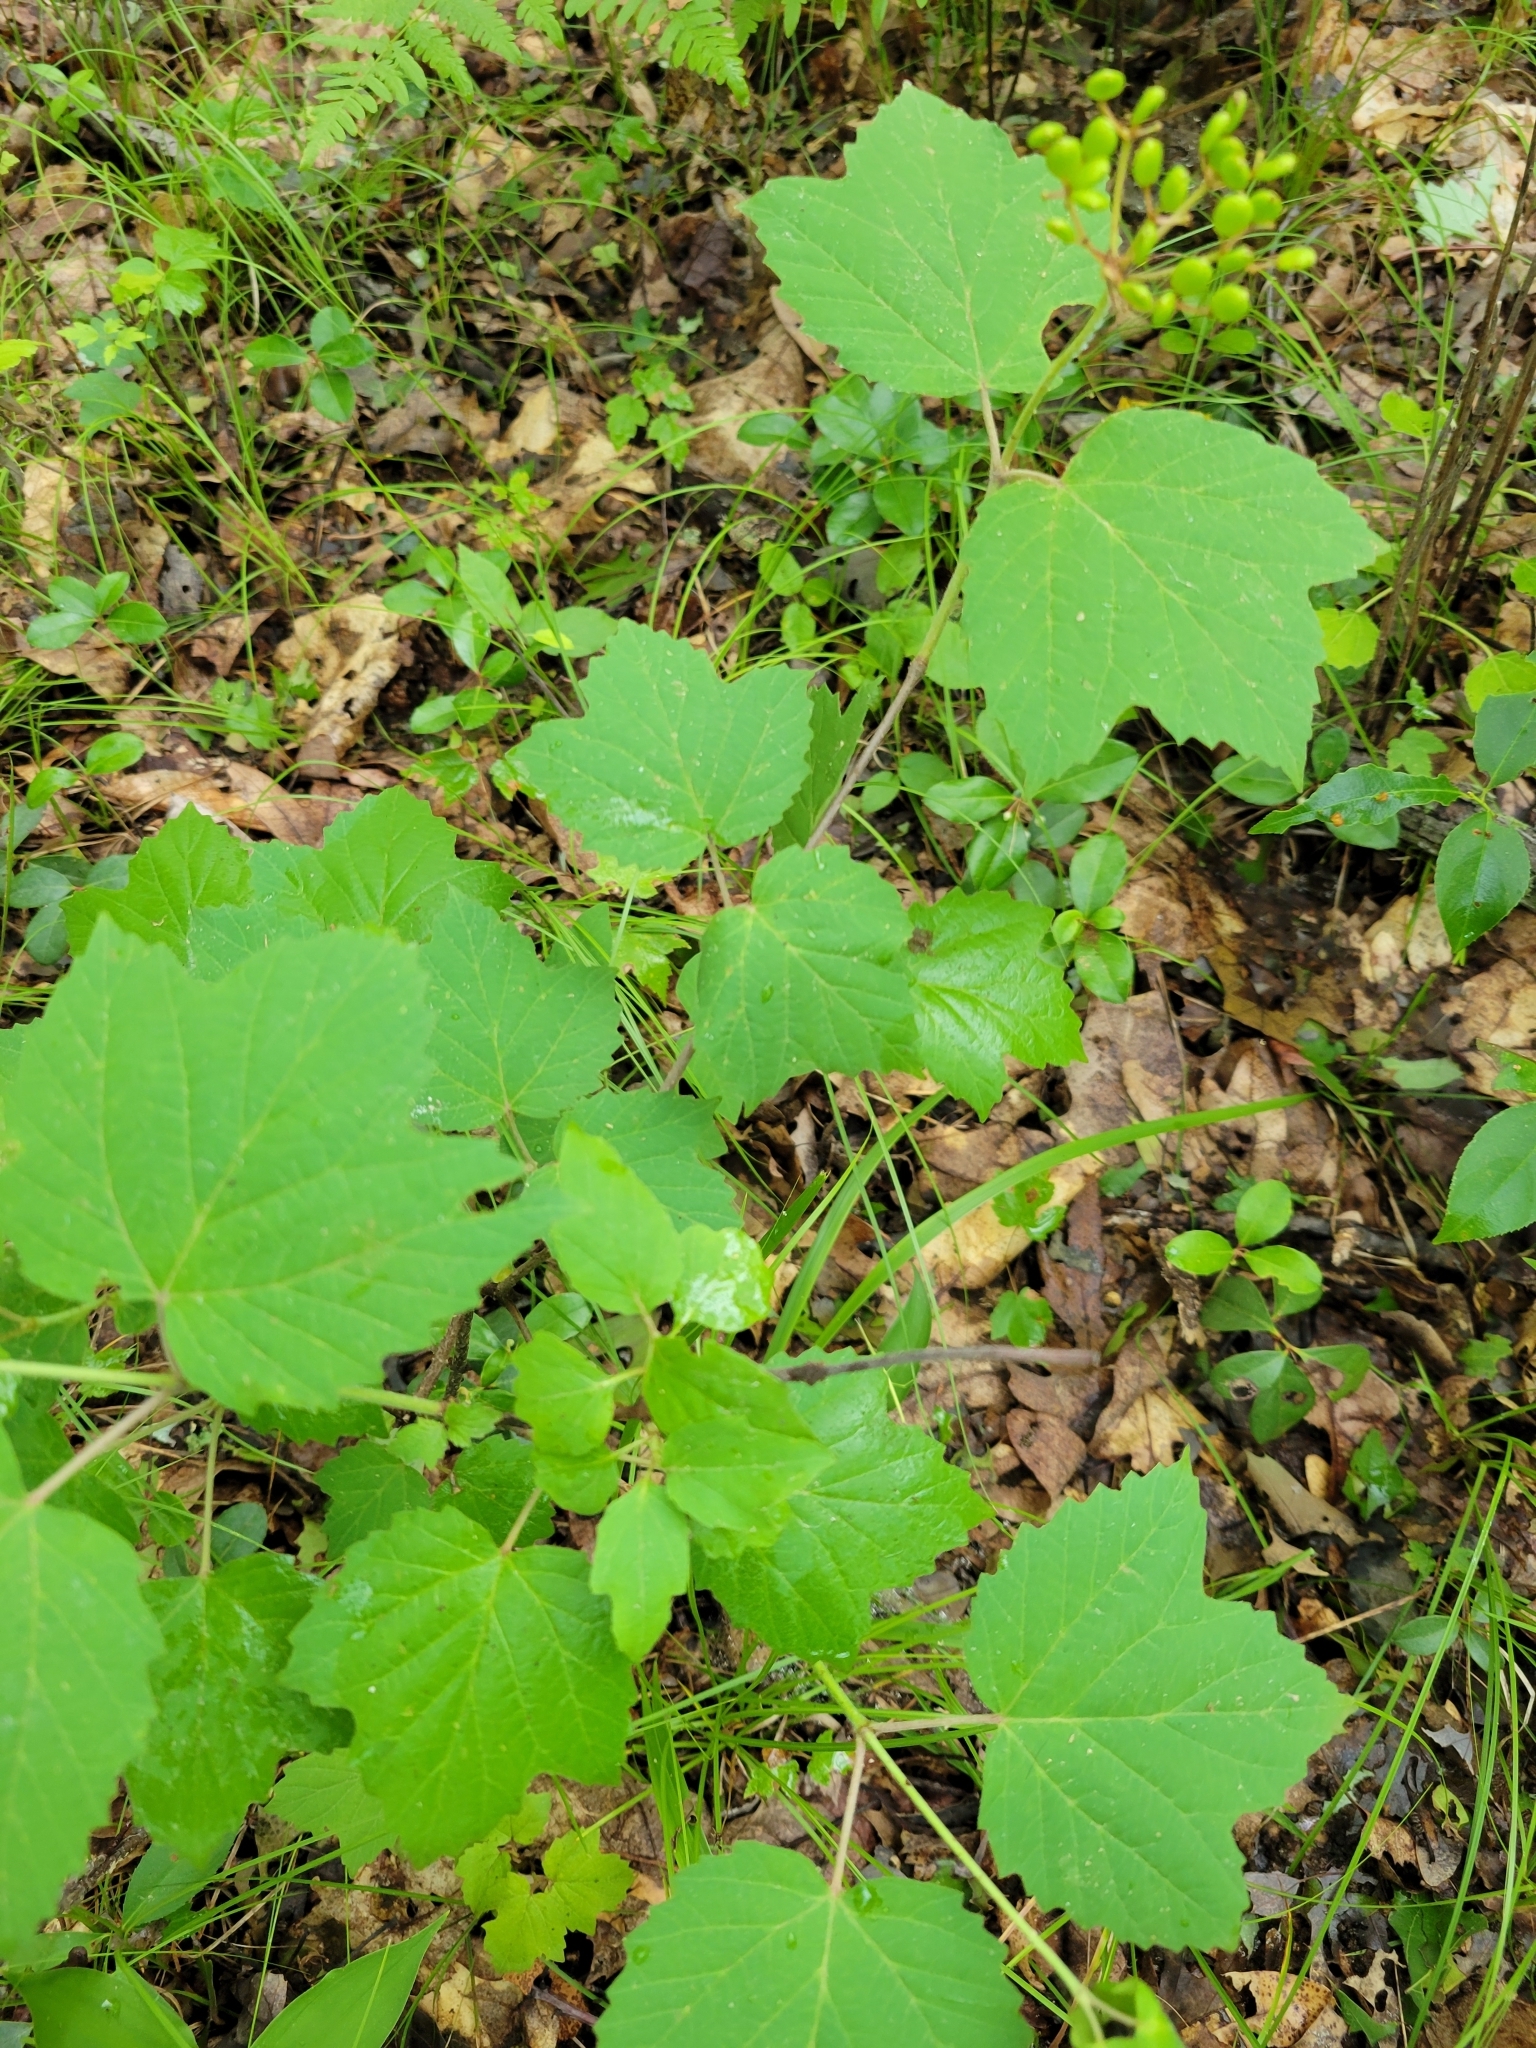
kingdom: Plantae
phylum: Tracheophyta
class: Magnoliopsida
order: Dipsacales
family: Viburnaceae
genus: Viburnum
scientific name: Viburnum acerifolium
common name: Dockmackie
